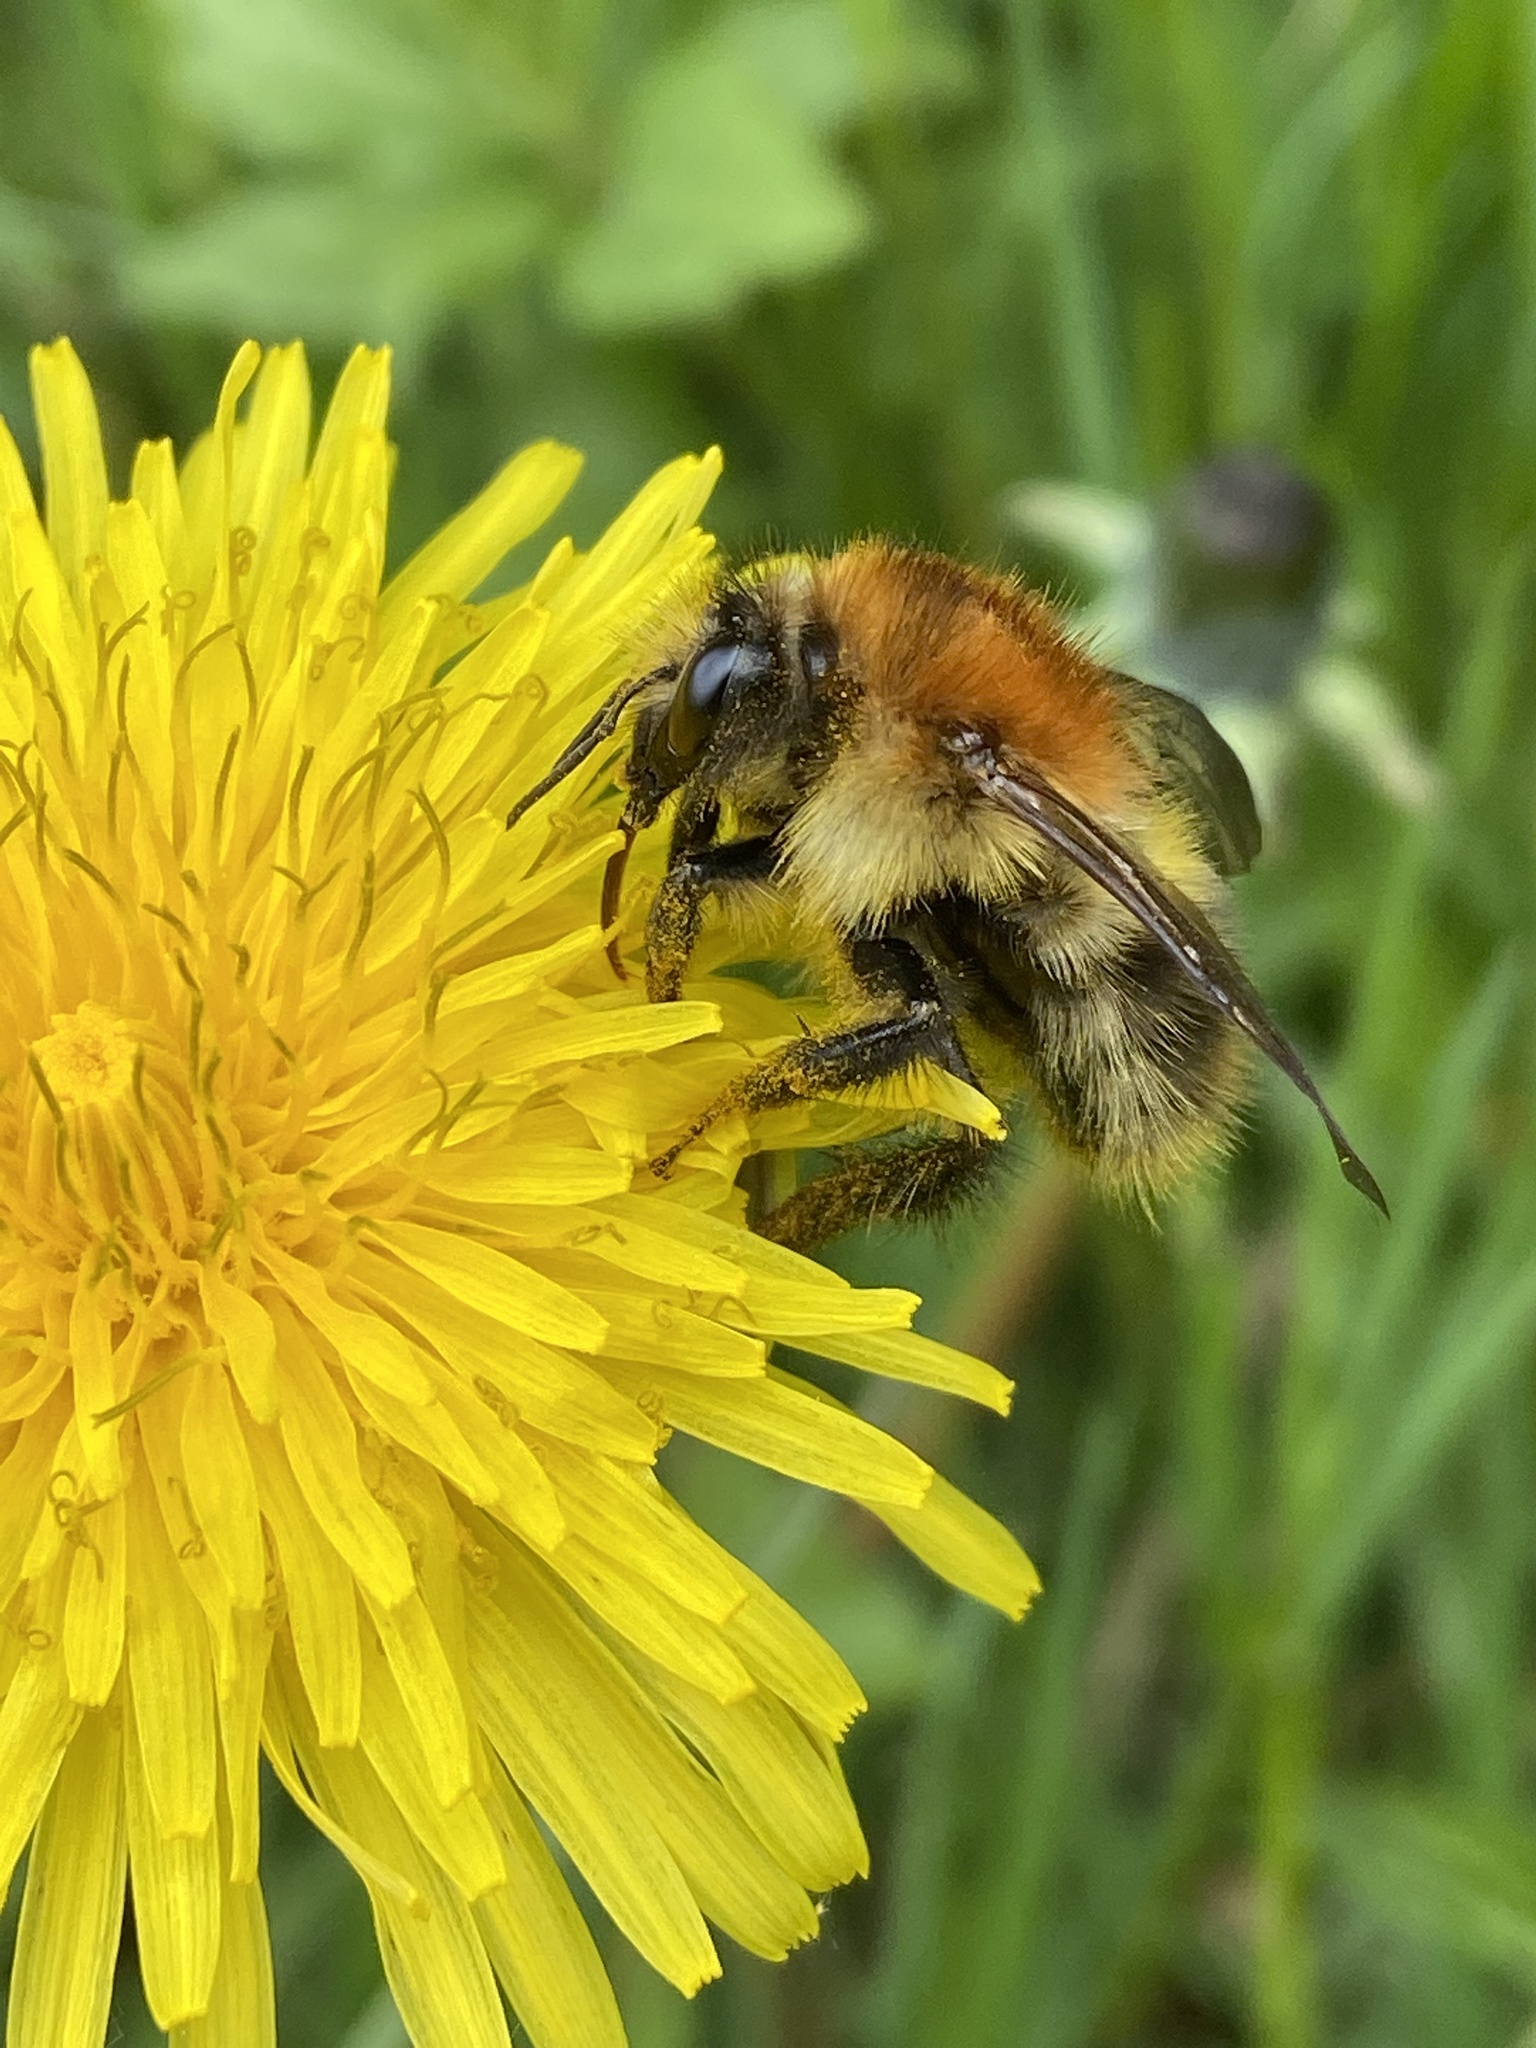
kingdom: Animalia
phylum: Arthropoda
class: Insecta
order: Hymenoptera
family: Apidae
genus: Bombus
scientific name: Bombus pascuorum
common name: Common carder bee
